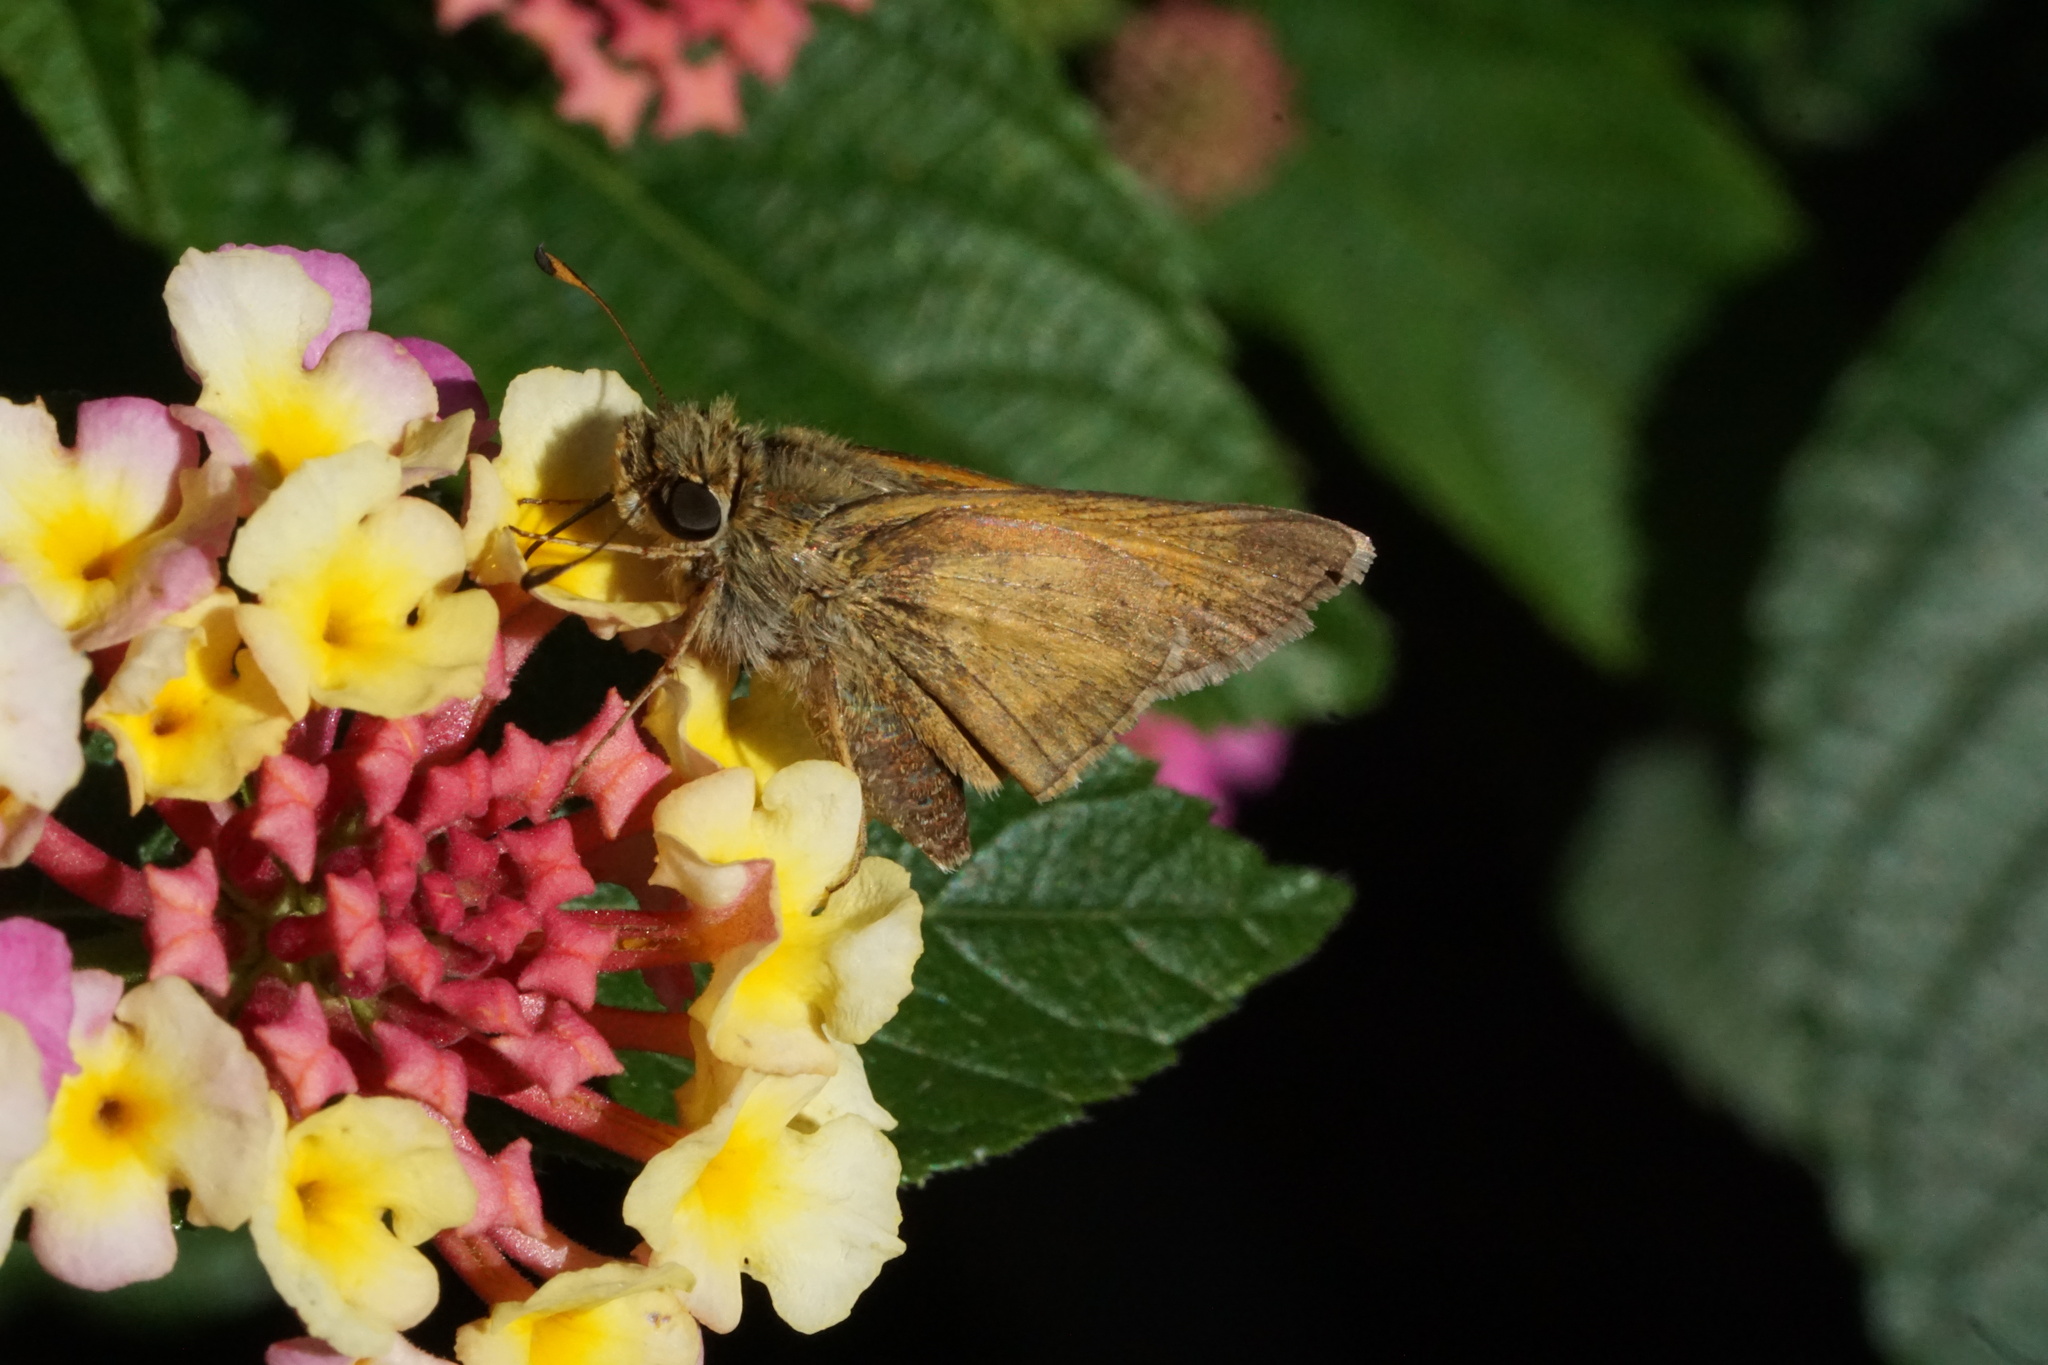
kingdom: Animalia
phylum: Arthropoda
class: Insecta
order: Lepidoptera
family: Hesperiidae
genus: Atalopedes
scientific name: Atalopedes
